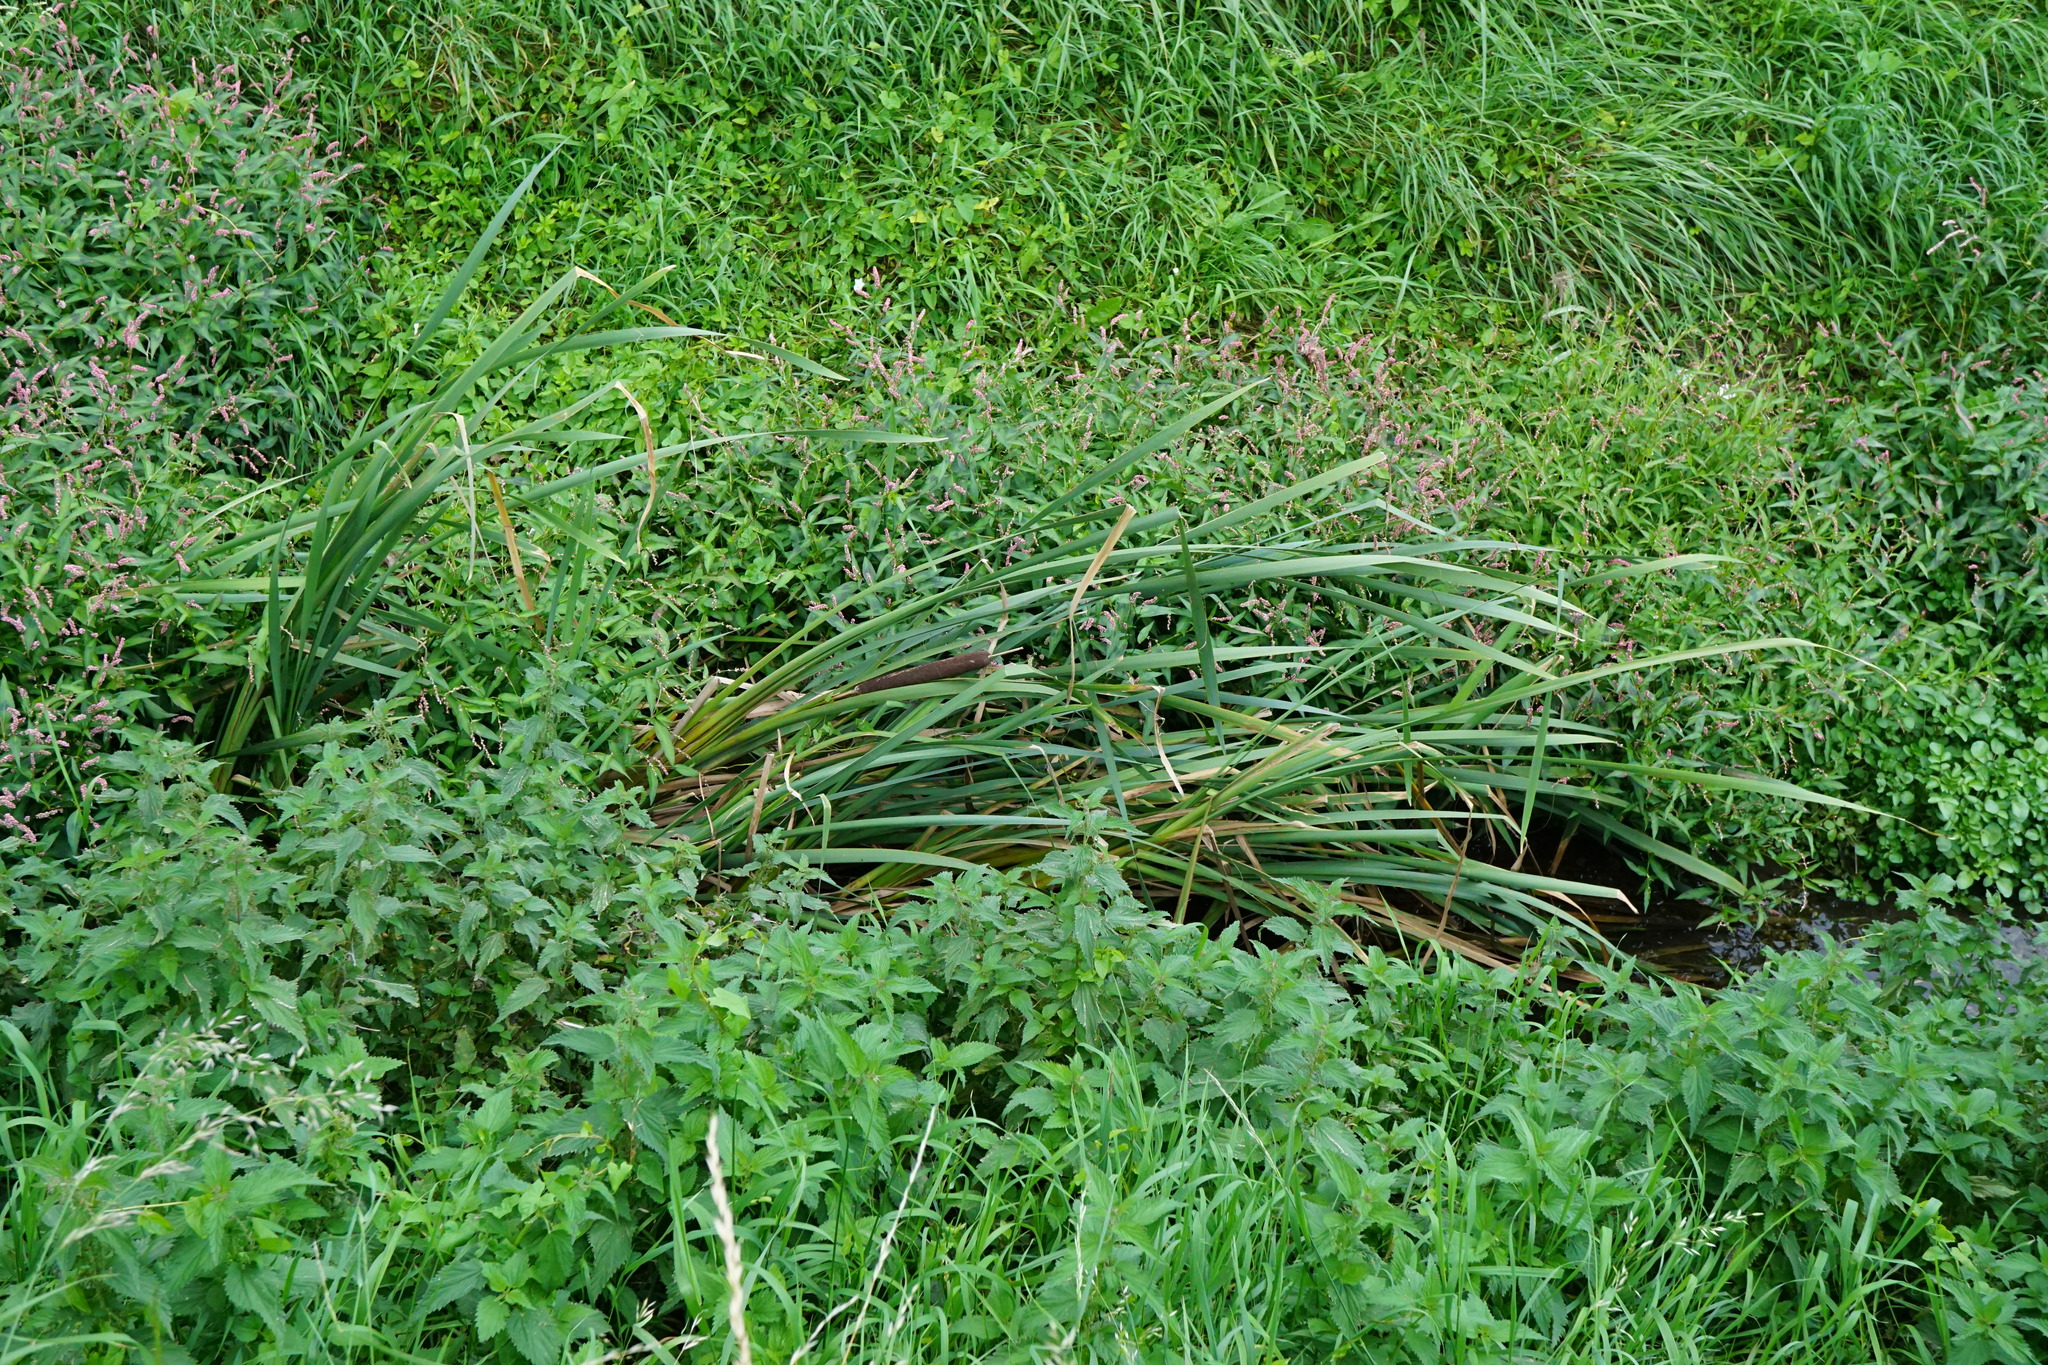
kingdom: Plantae
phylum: Tracheophyta
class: Liliopsida
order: Poales
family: Typhaceae
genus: Typha
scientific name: Typha latifolia
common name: Broadleaf cattail
